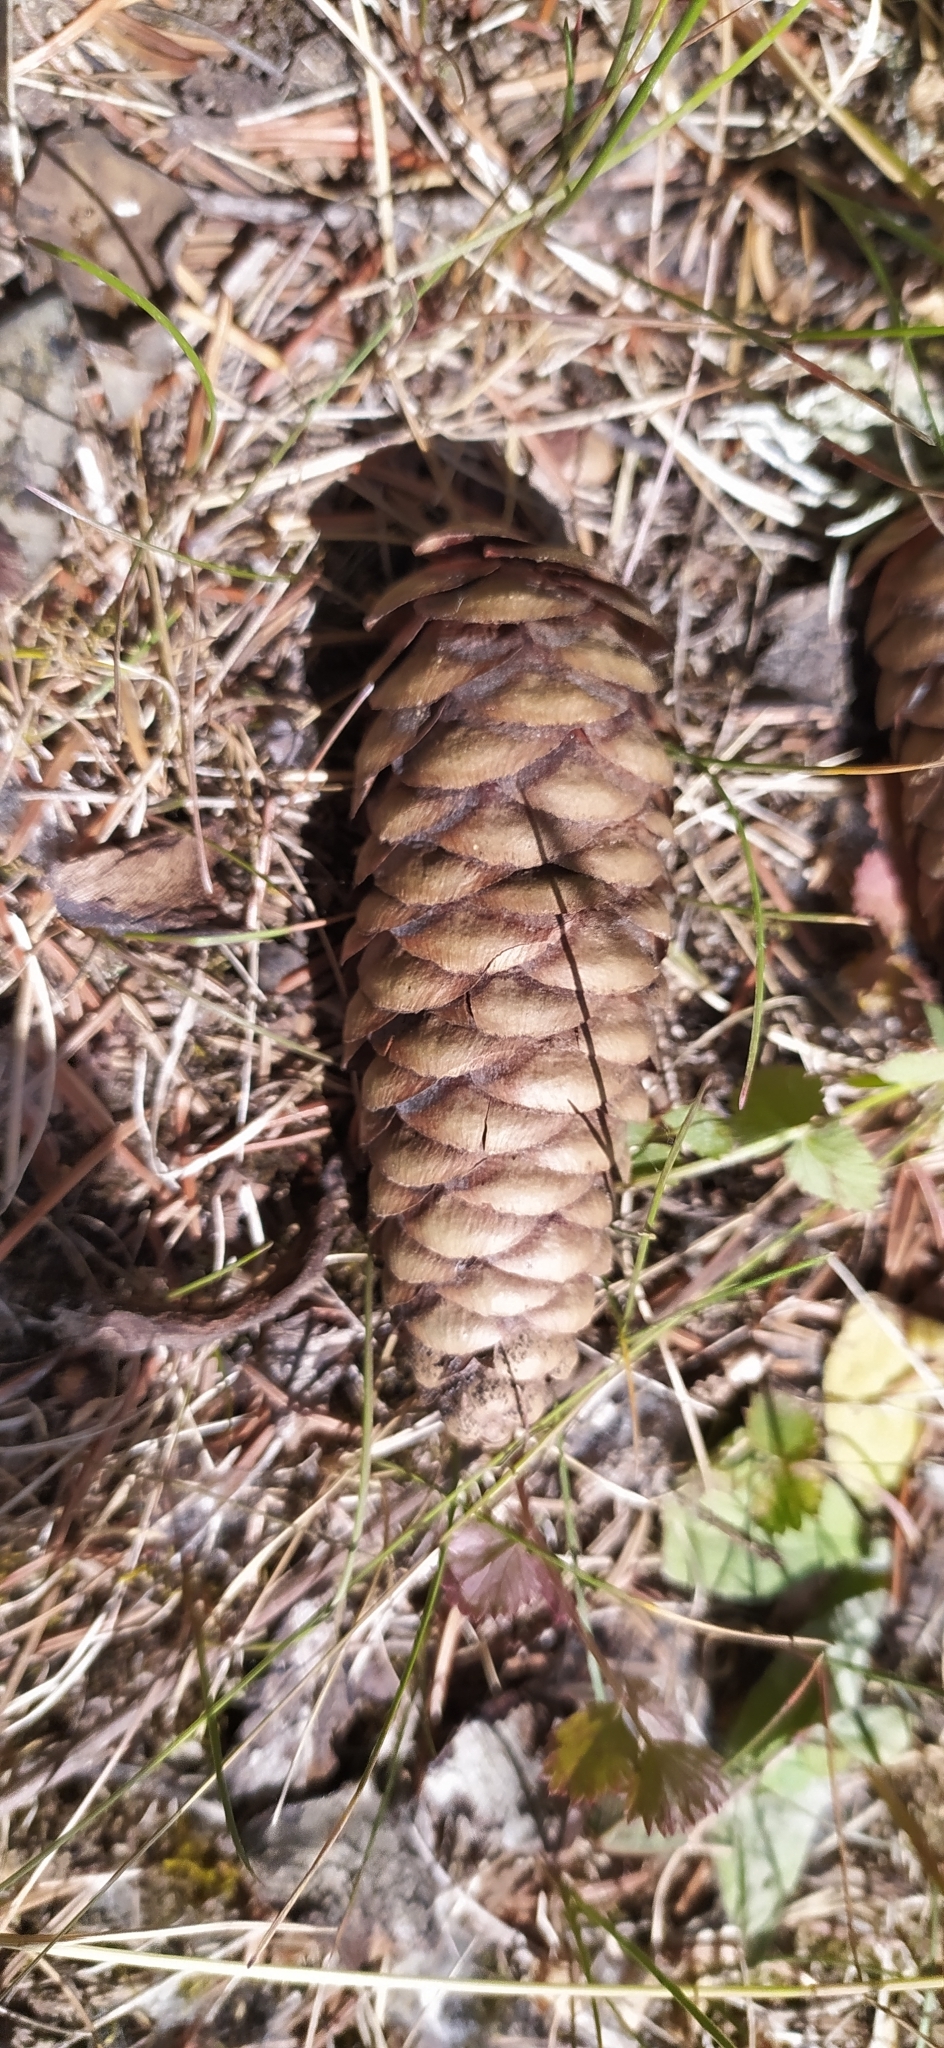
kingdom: Plantae
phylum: Tracheophyta
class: Pinopsida
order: Pinales
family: Pinaceae
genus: Picea
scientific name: Picea obovata
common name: Siberian spruce
